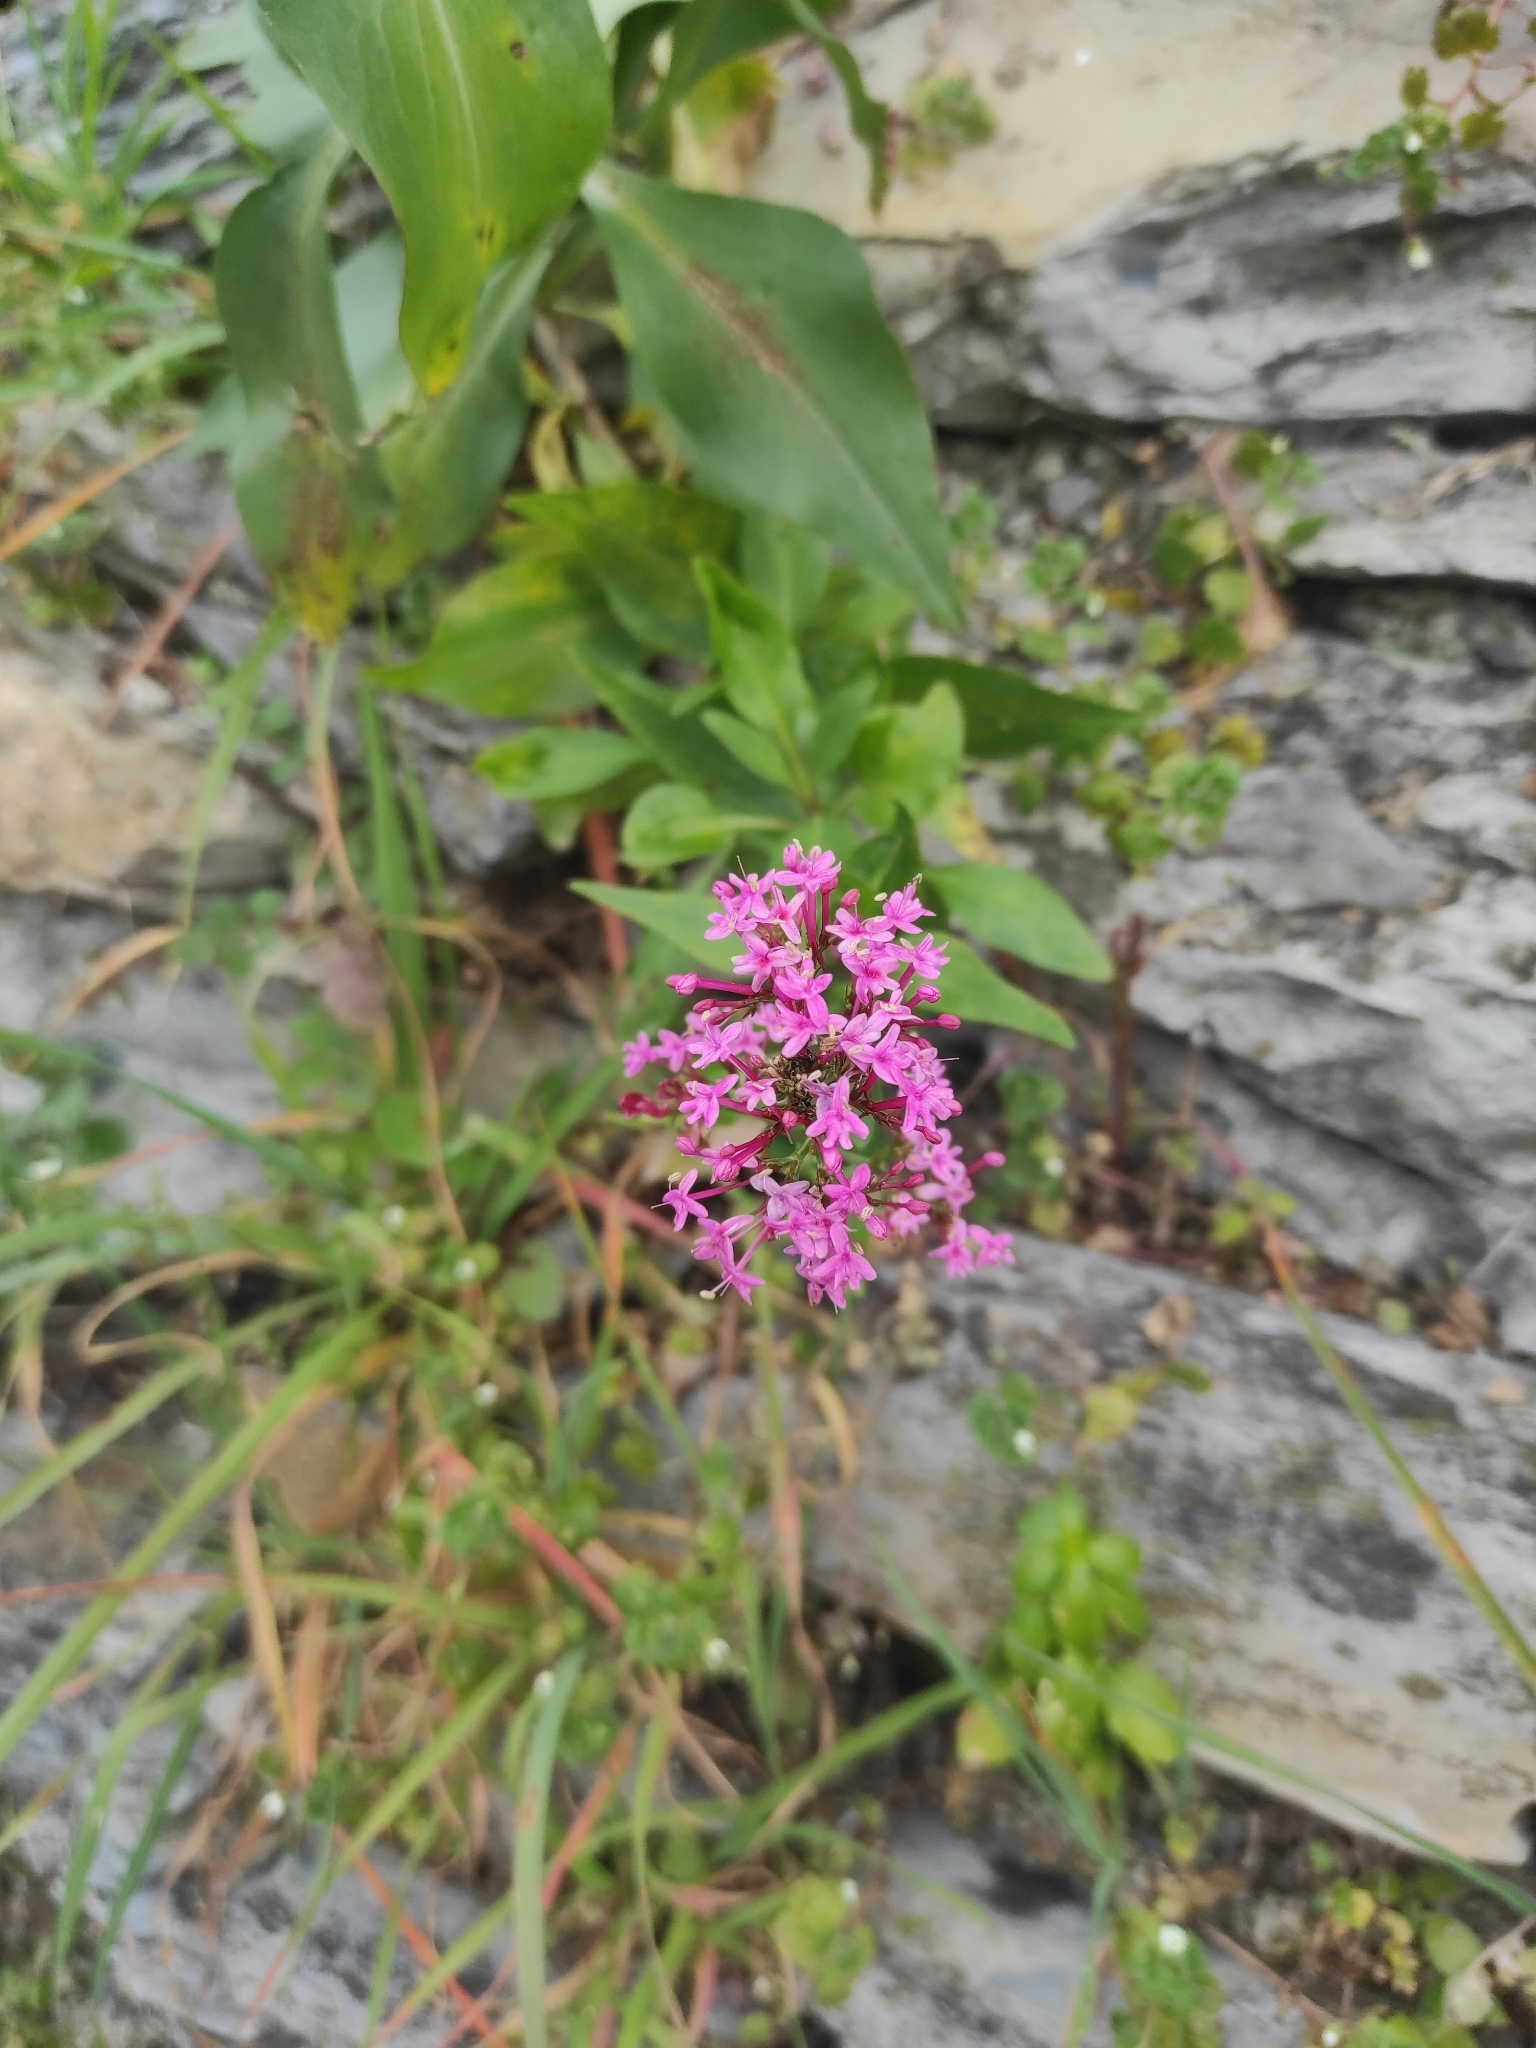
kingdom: Plantae
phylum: Tracheophyta
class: Magnoliopsida
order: Dipsacales
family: Caprifoliaceae
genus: Centranthus
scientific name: Centranthus ruber
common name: Red valerian
